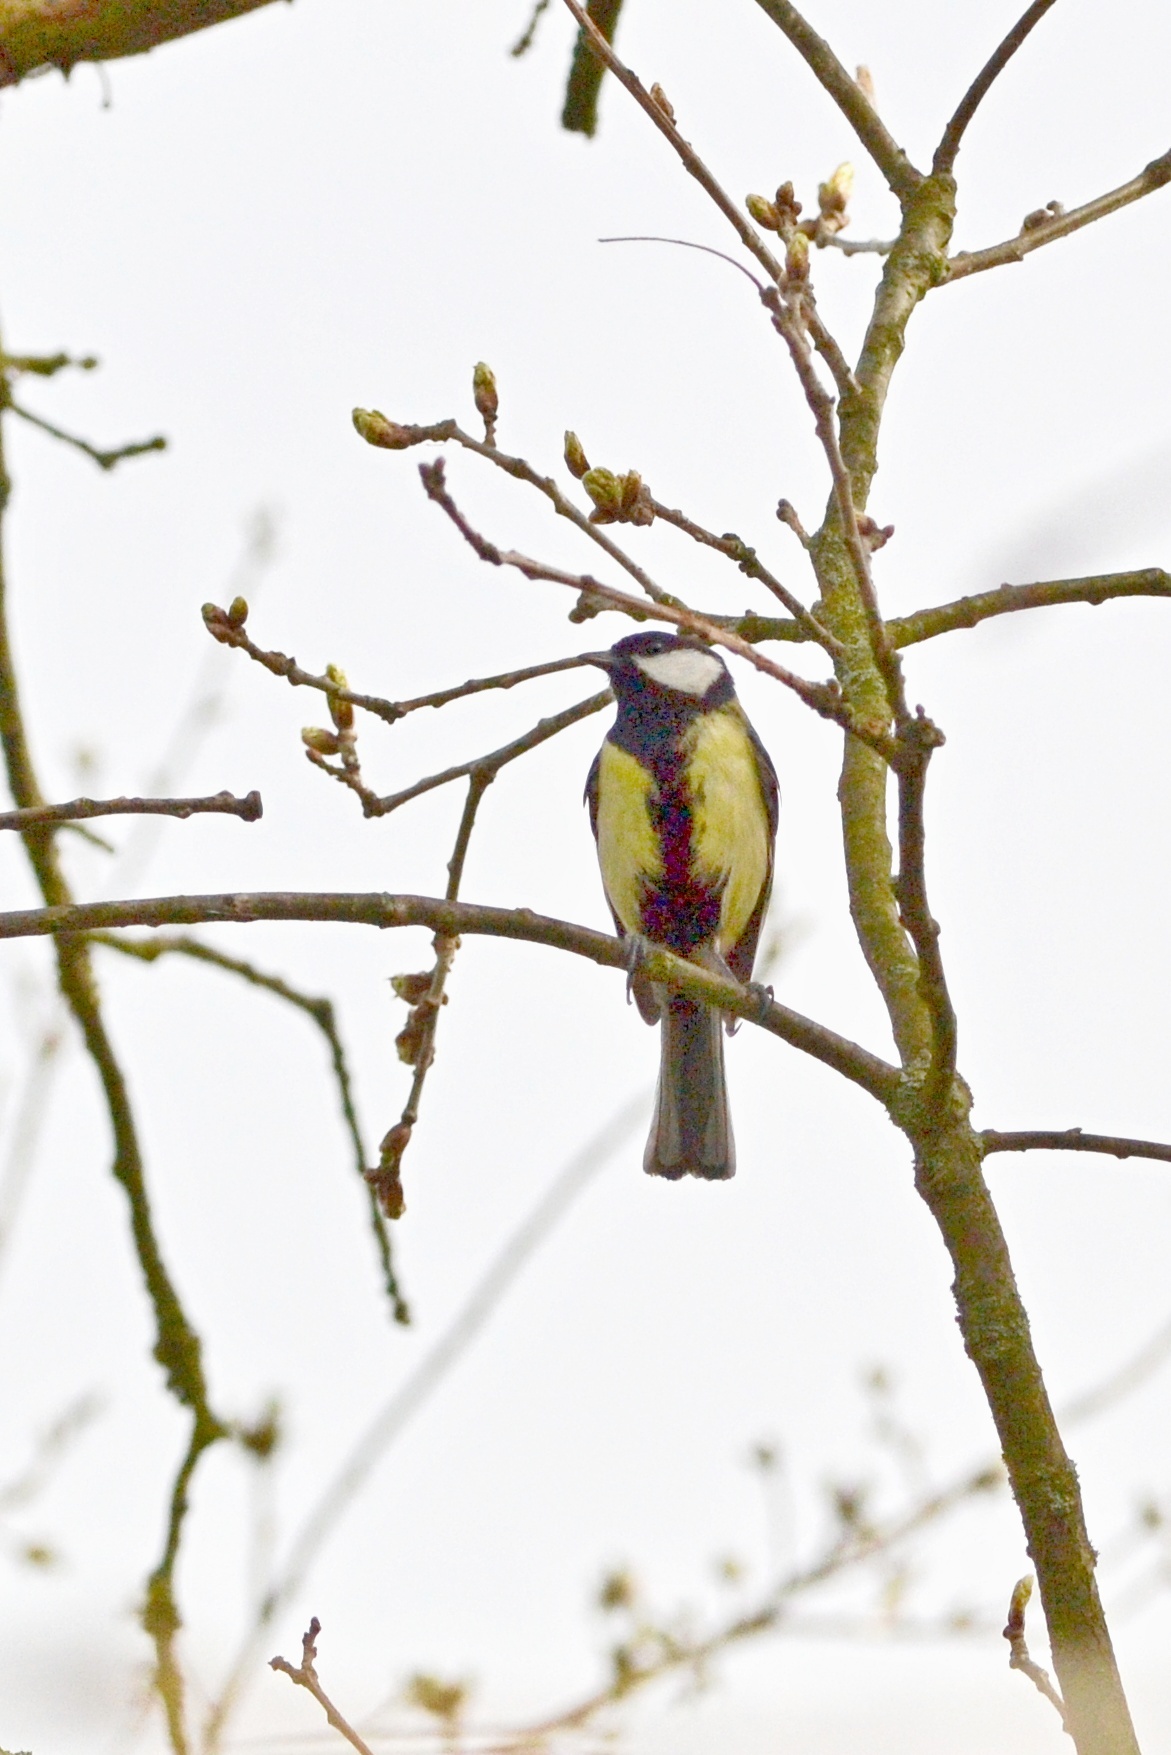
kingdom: Animalia
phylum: Chordata
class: Aves
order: Passeriformes
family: Paridae
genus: Parus
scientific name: Parus major
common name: Great tit
